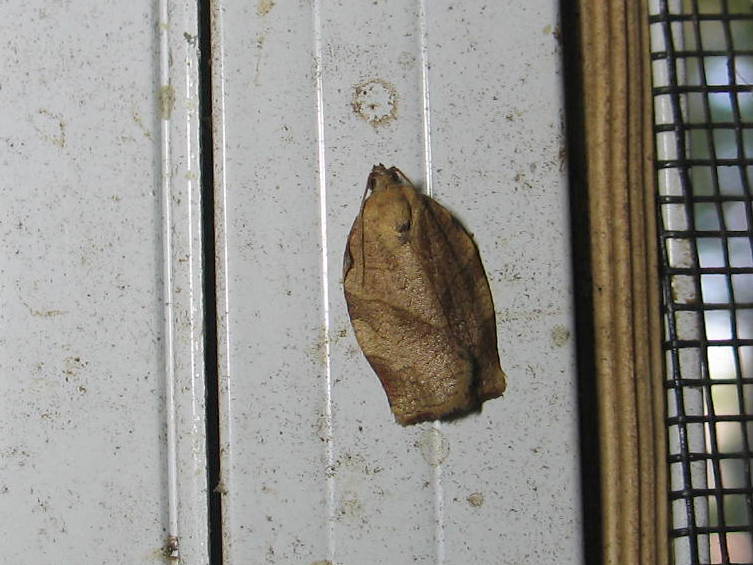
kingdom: Animalia
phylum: Arthropoda
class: Insecta
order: Lepidoptera
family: Tortricidae
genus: Choristoneura
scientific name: Choristoneura rosaceana
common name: Oblique-banded leafroller moth
